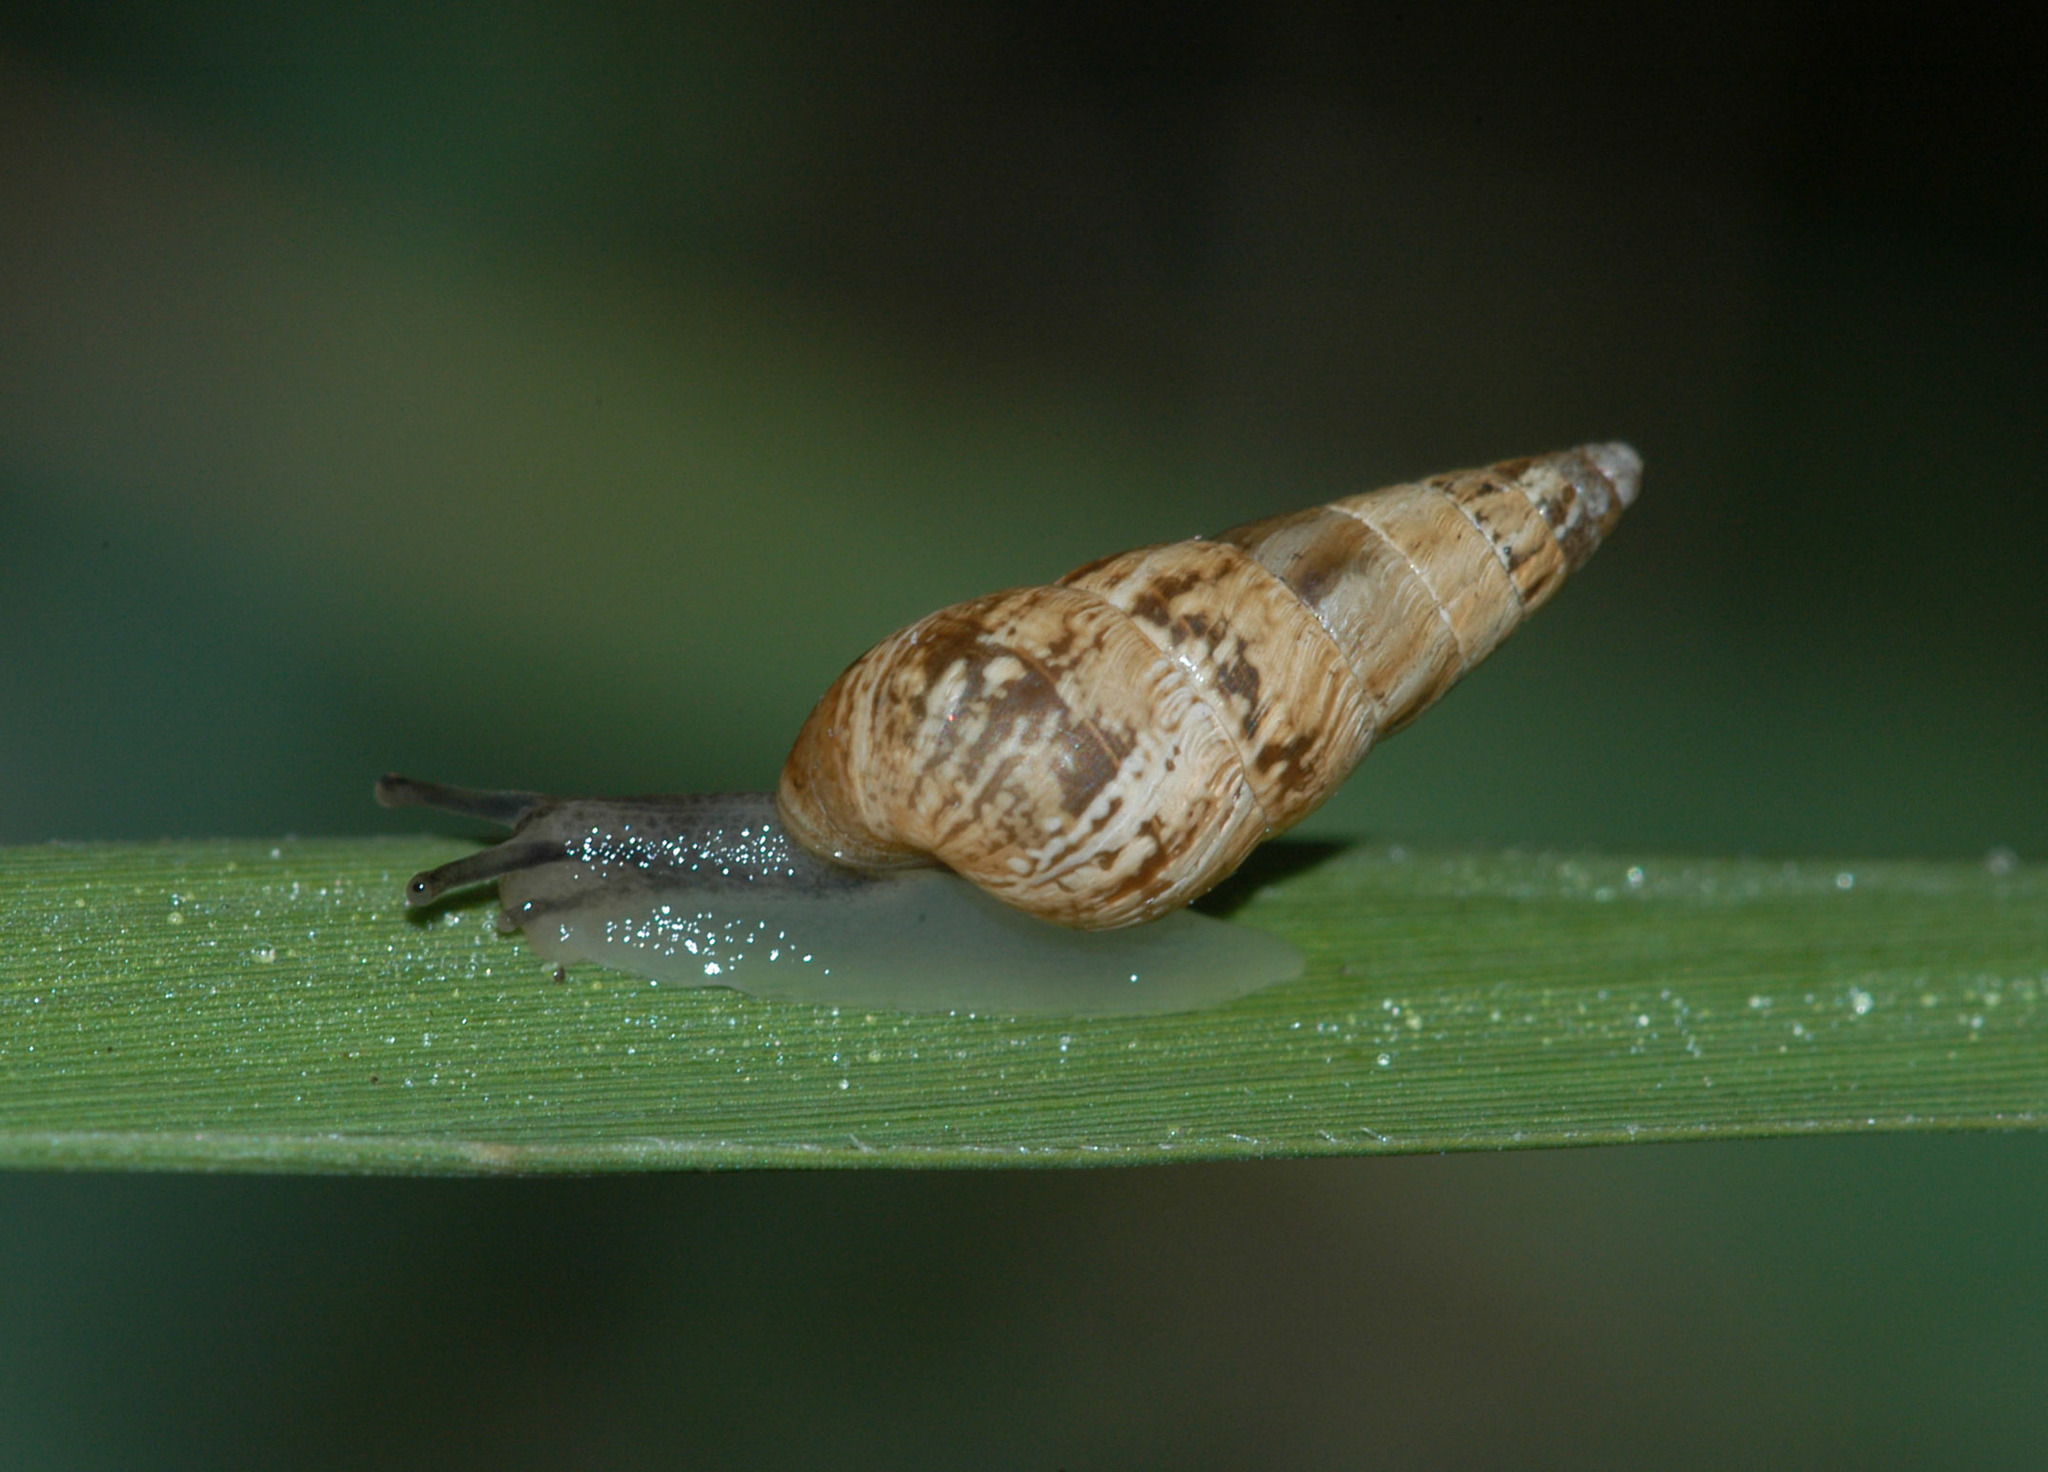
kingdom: Animalia
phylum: Mollusca
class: Gastropoda
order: Stylommatophora
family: Geomitridae
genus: Cochlicella
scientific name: Cochlicella acuta
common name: Pointed snail
